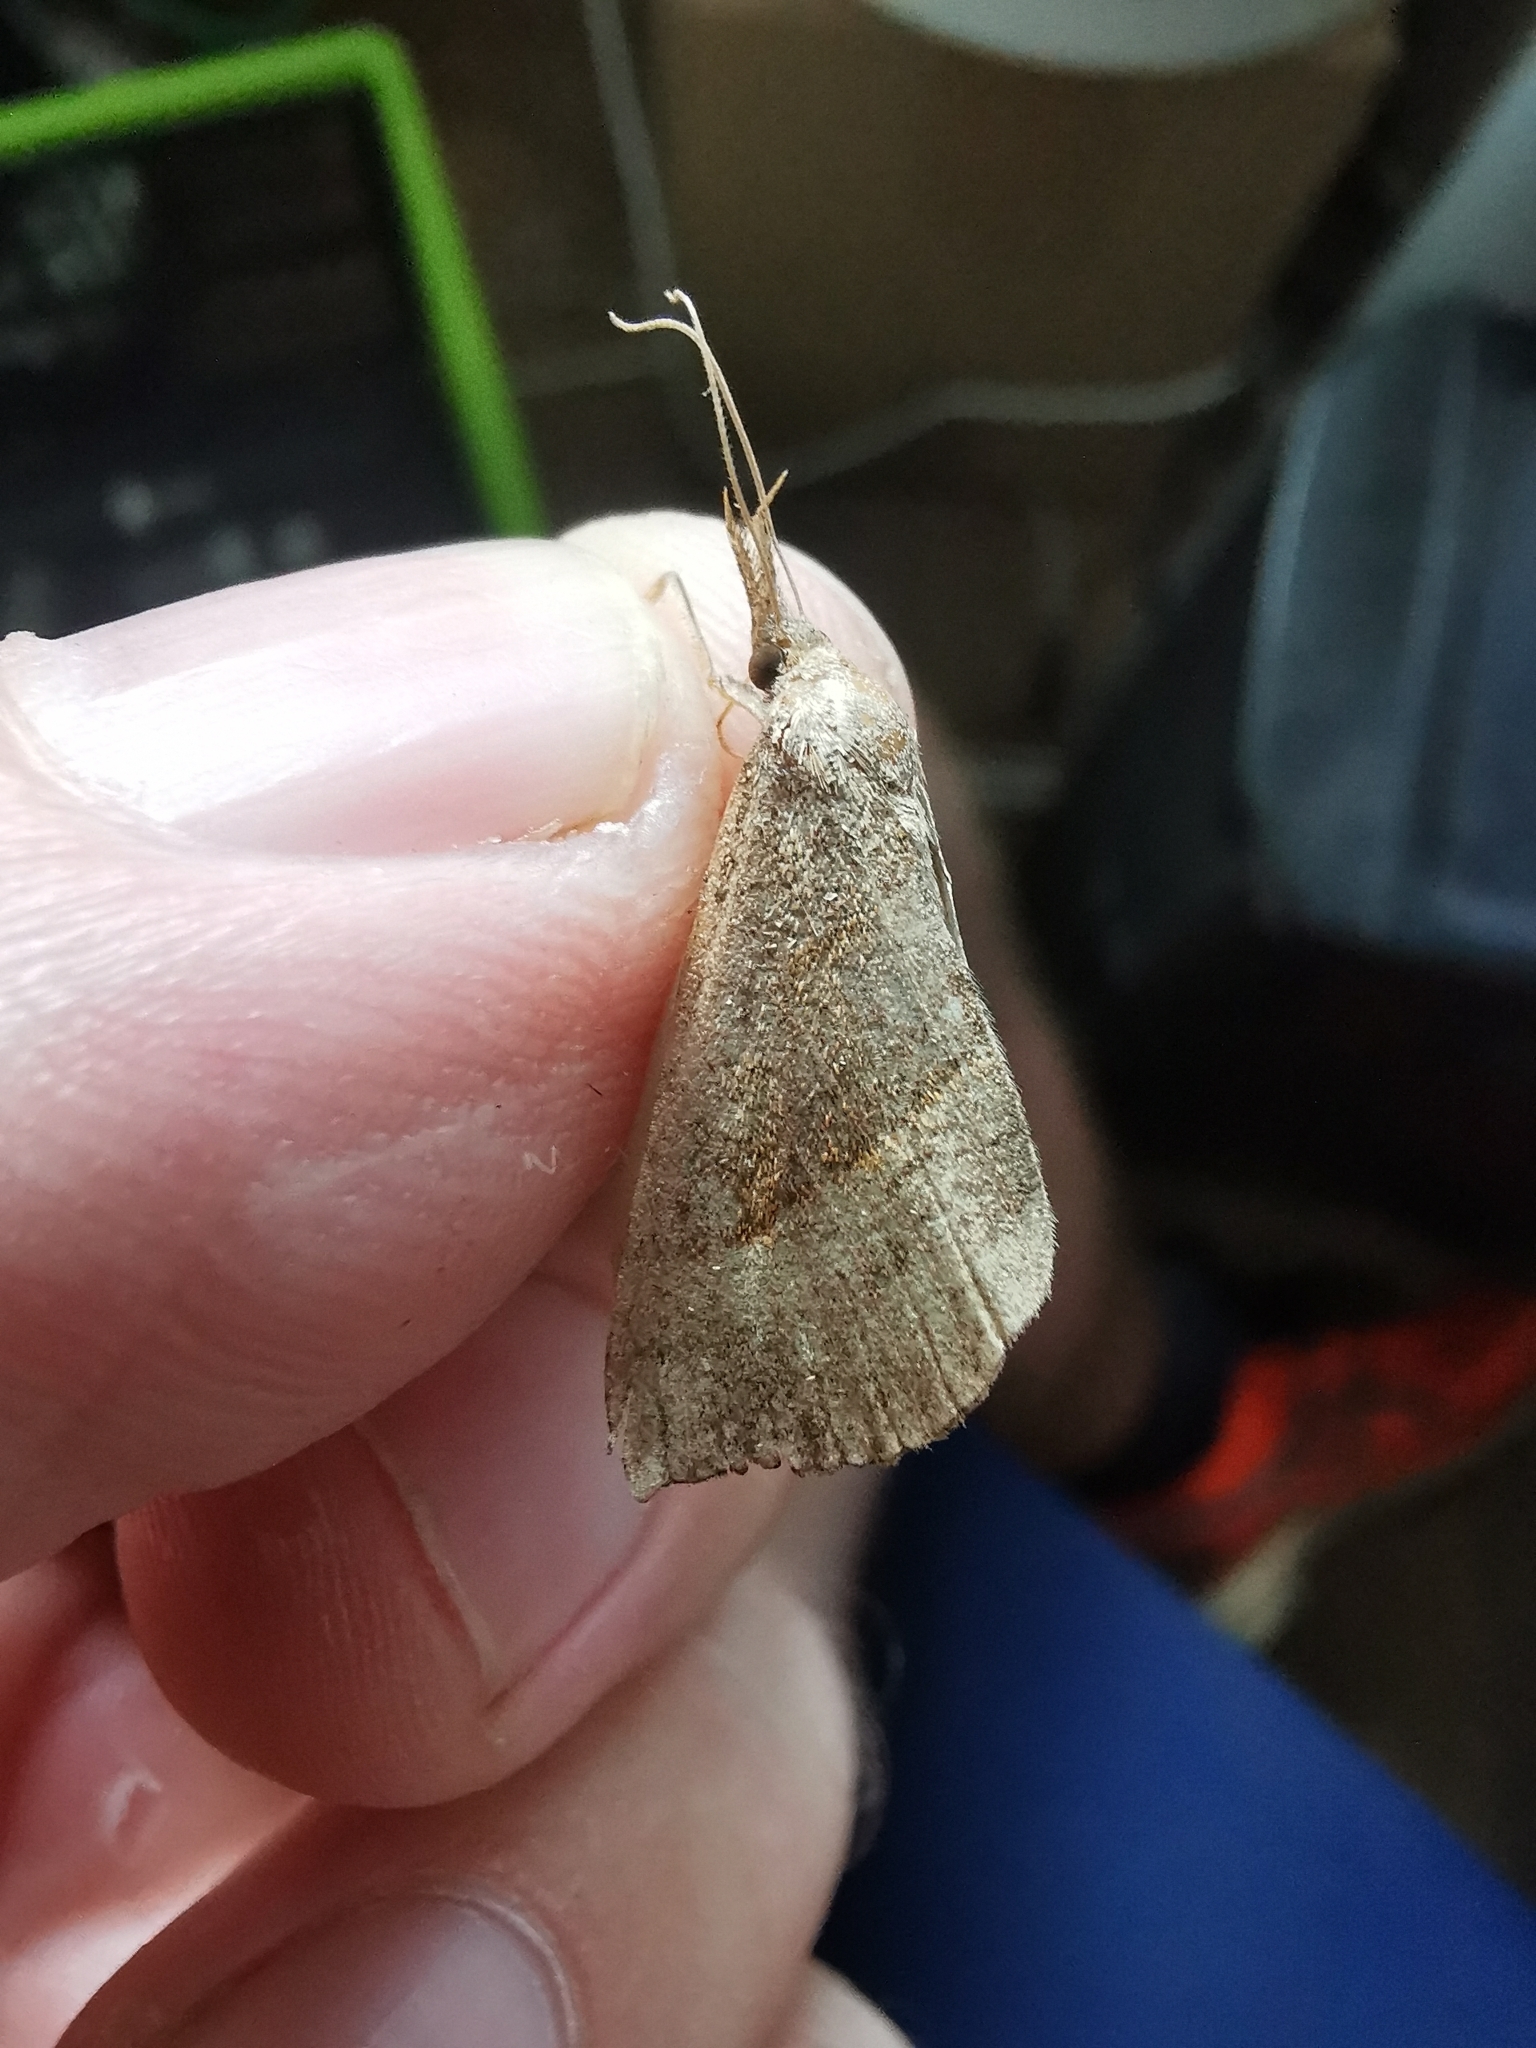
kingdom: Animalia
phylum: Arthropoda
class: Insecta
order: Lepidoptera
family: Erebidae
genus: Hypena
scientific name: Hypena proboscidalis
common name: Snout
